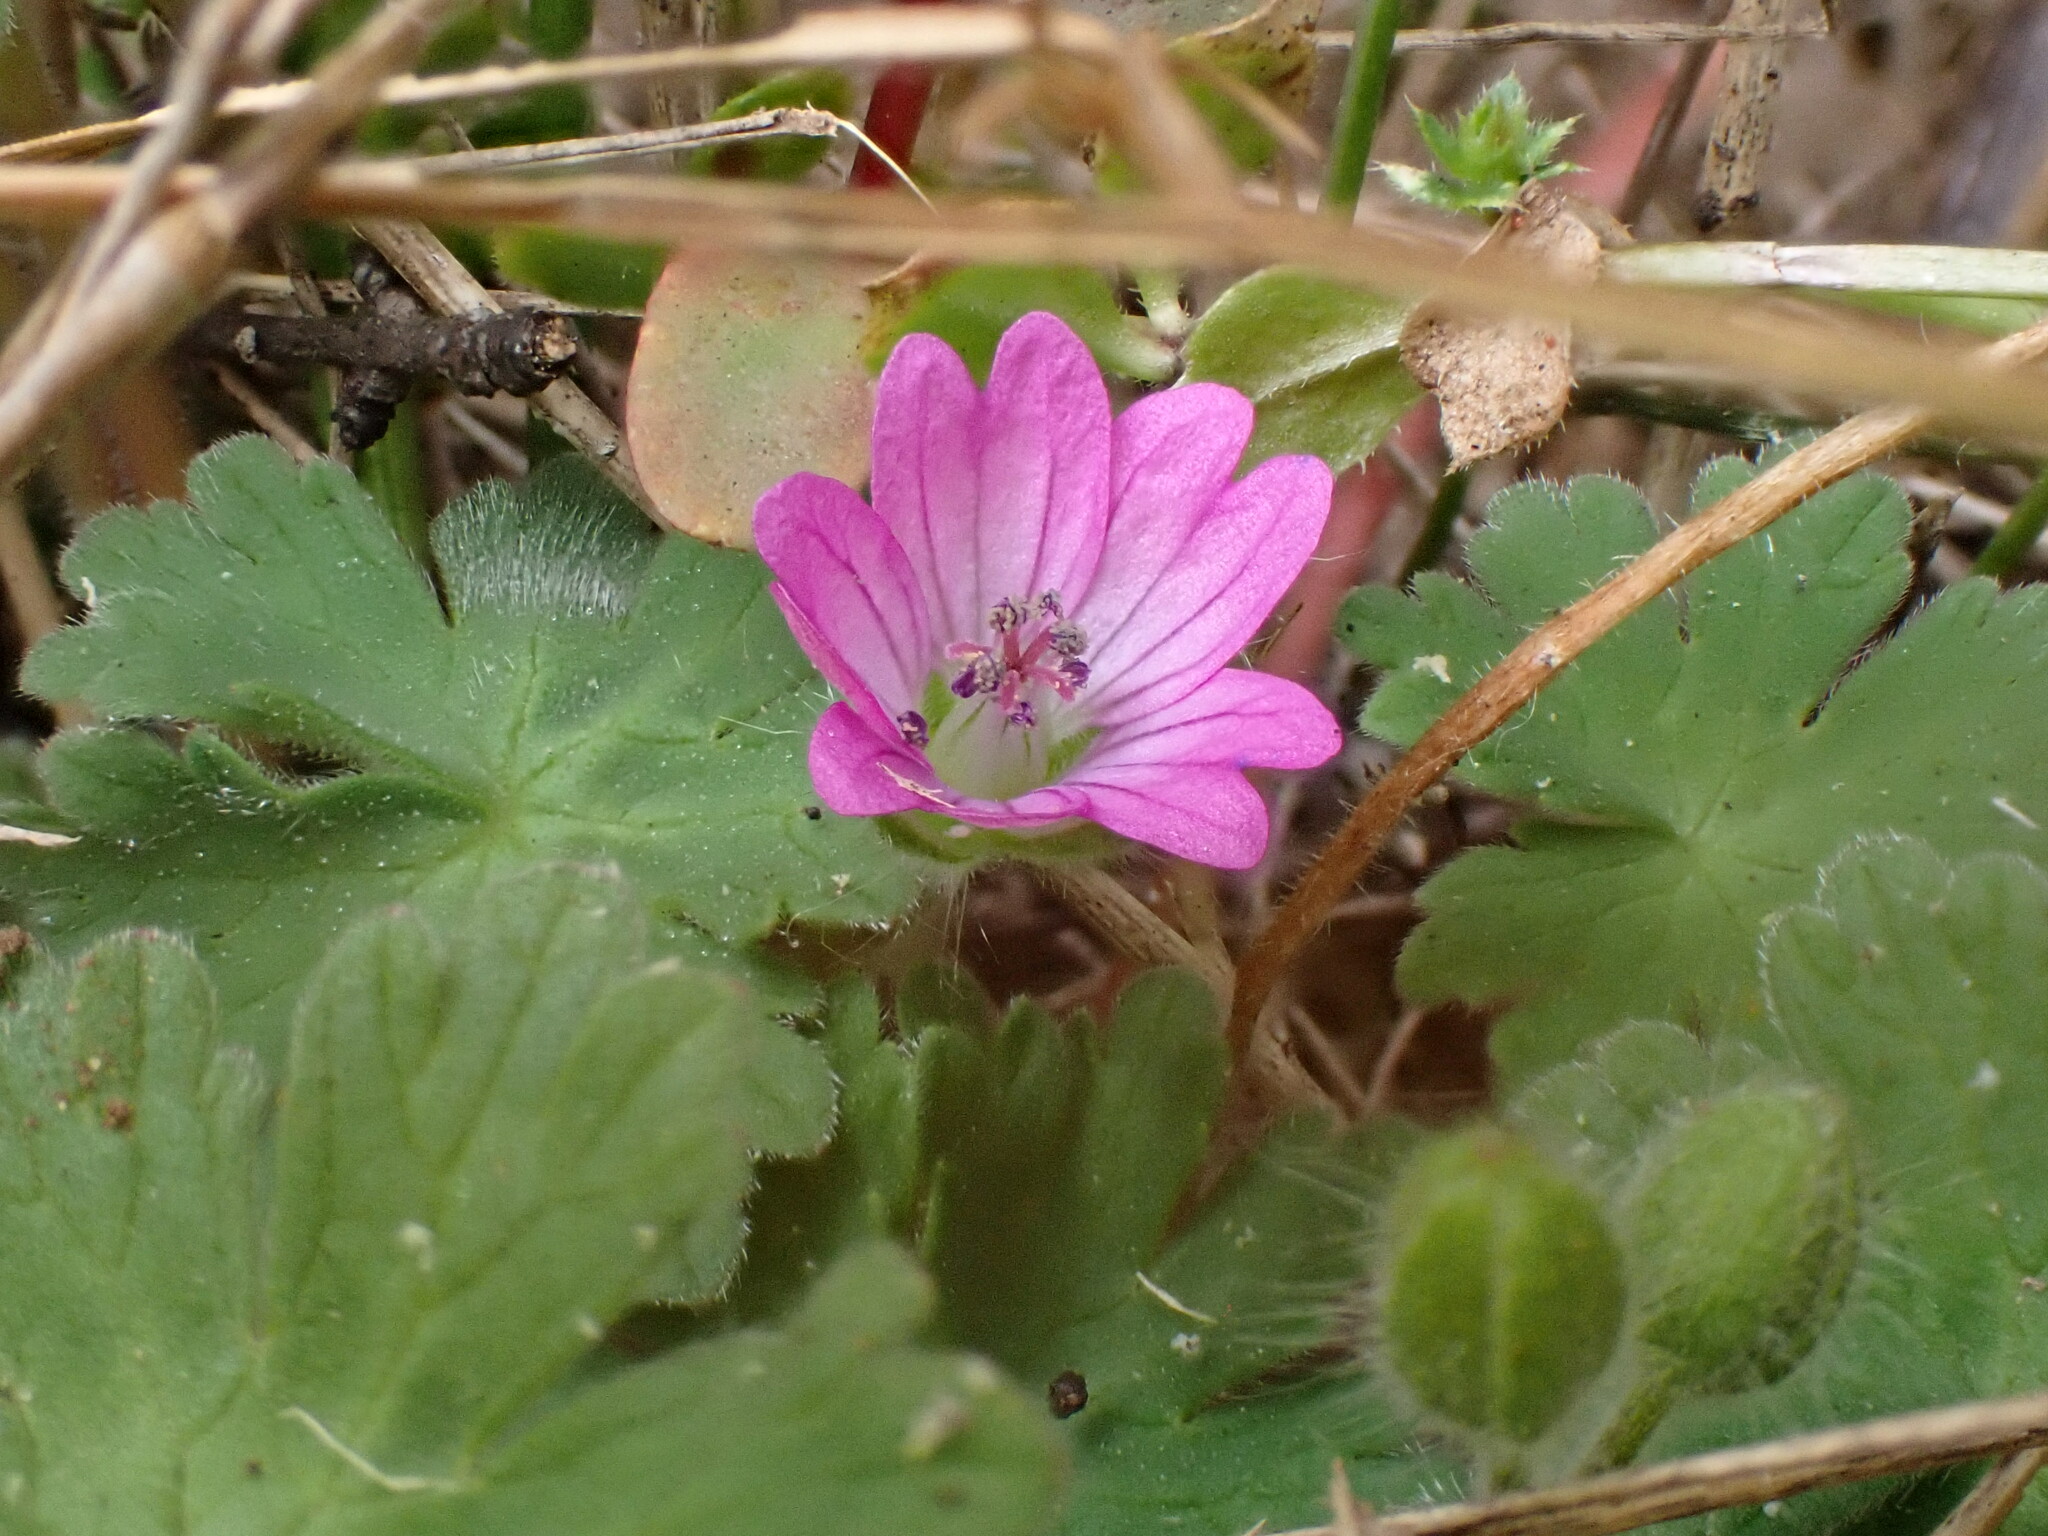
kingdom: Plantae
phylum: Tracheophyta
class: Magnoliopsida
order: Geraniales
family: Geraniaceae
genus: Geranium
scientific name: Geranium molle
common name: Dove's-foot crane's-bill
